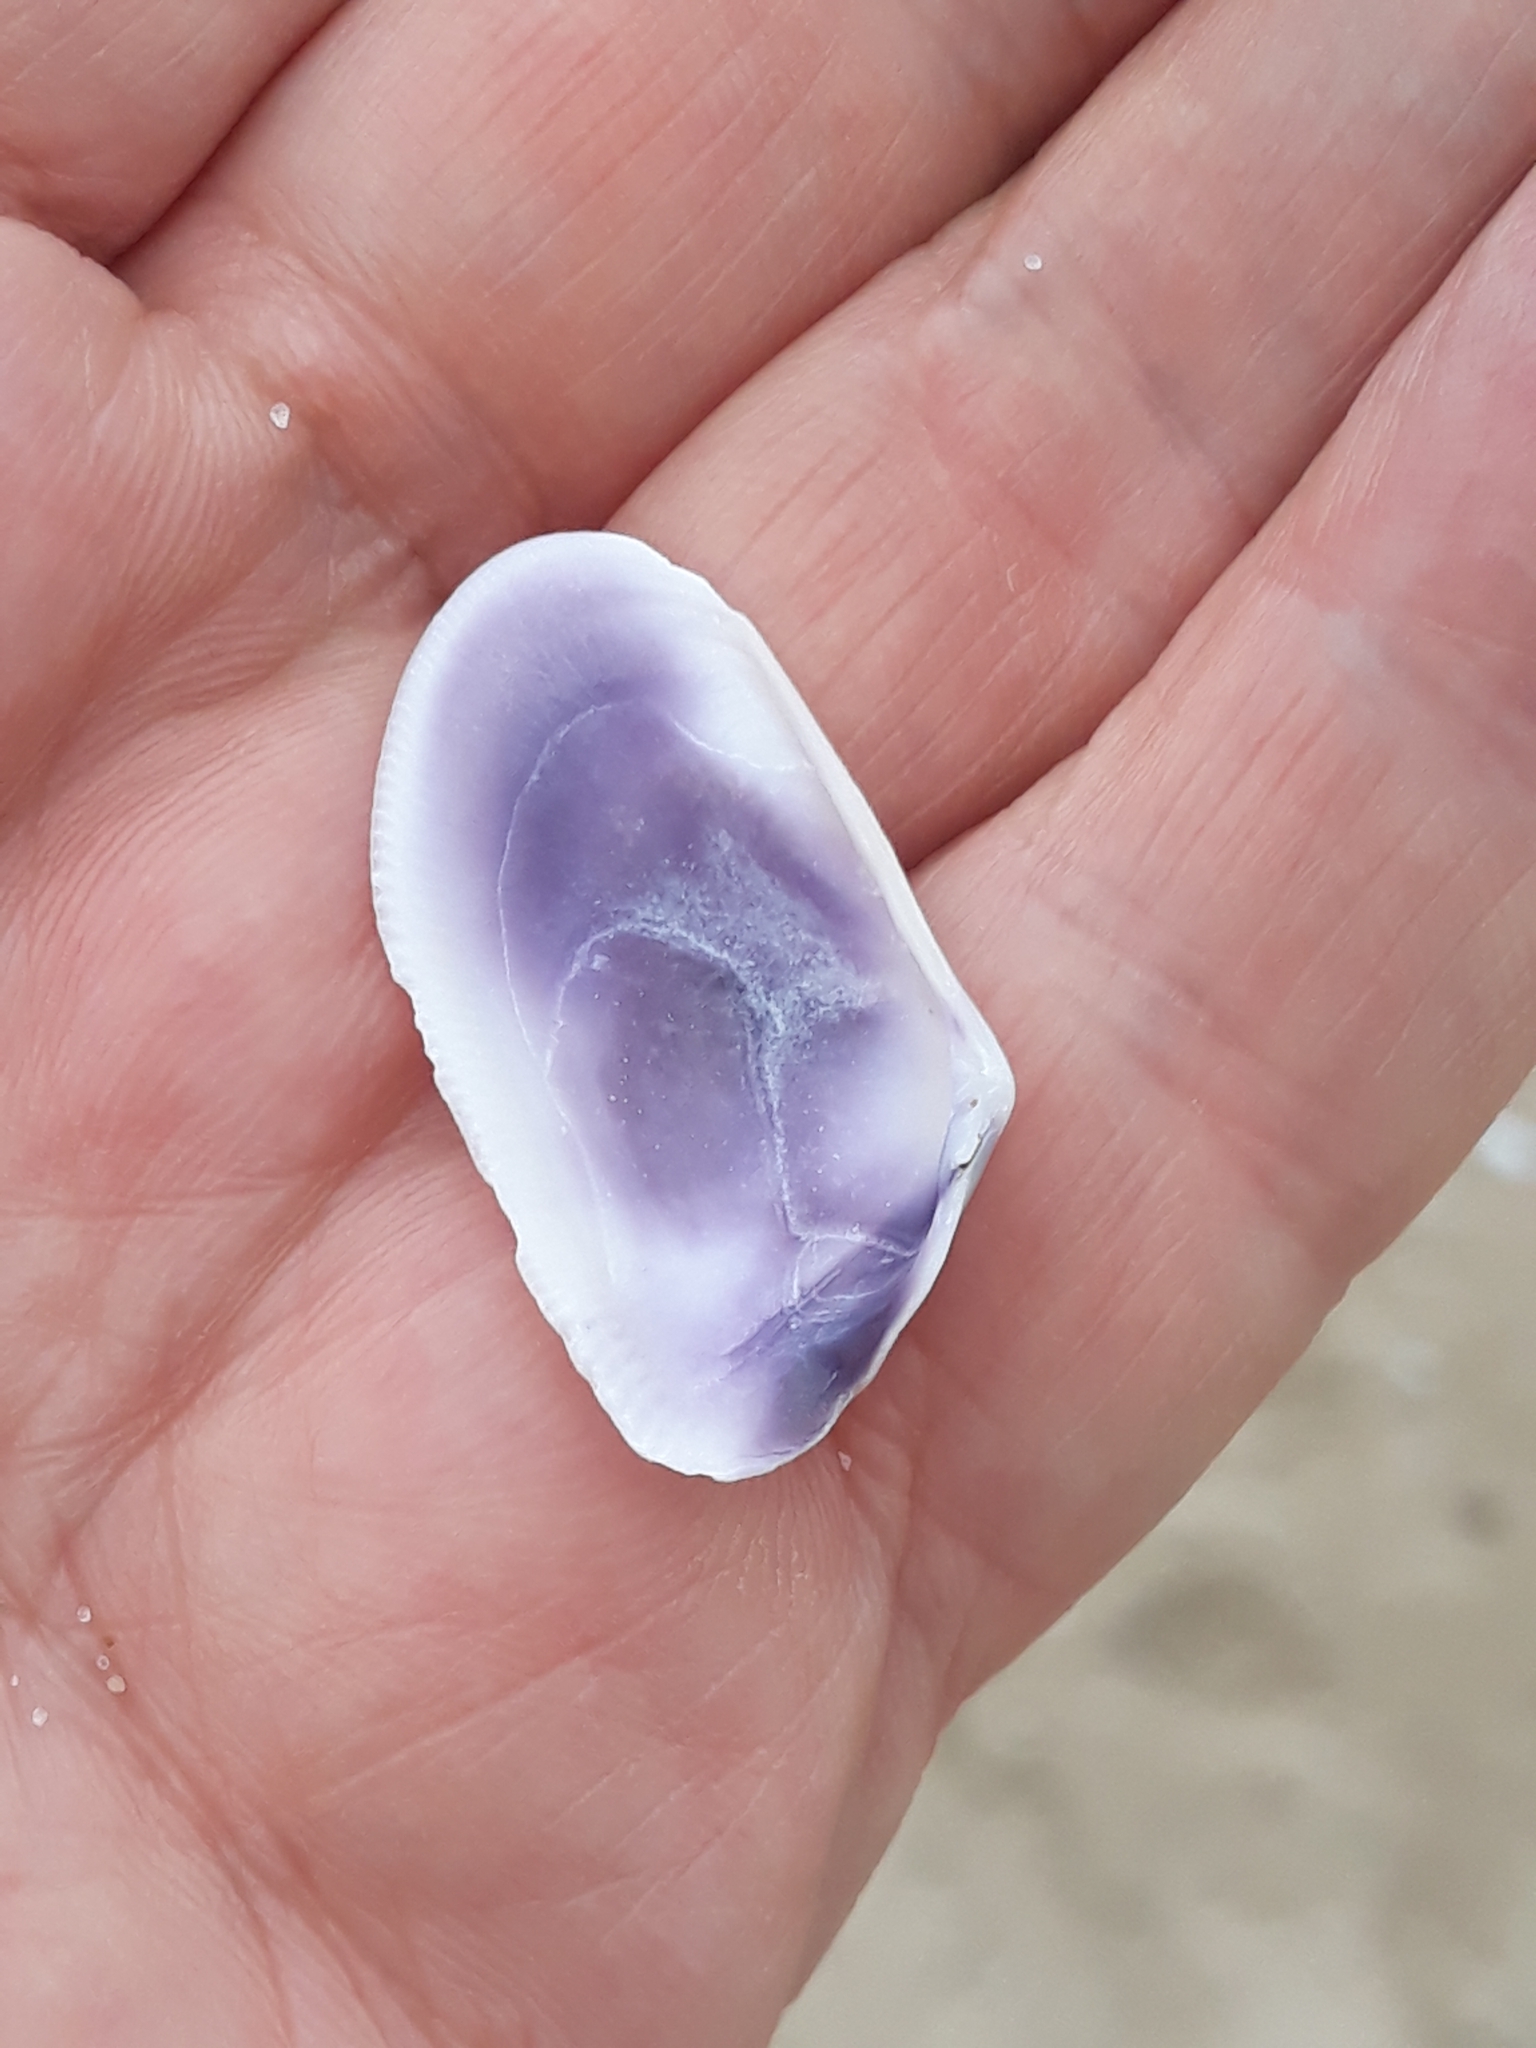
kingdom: Animalia
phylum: Mollusca
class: Bivalvia
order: Cardiida
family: Donacidae
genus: Donax
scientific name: Donax trunculus
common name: Truncate donax
